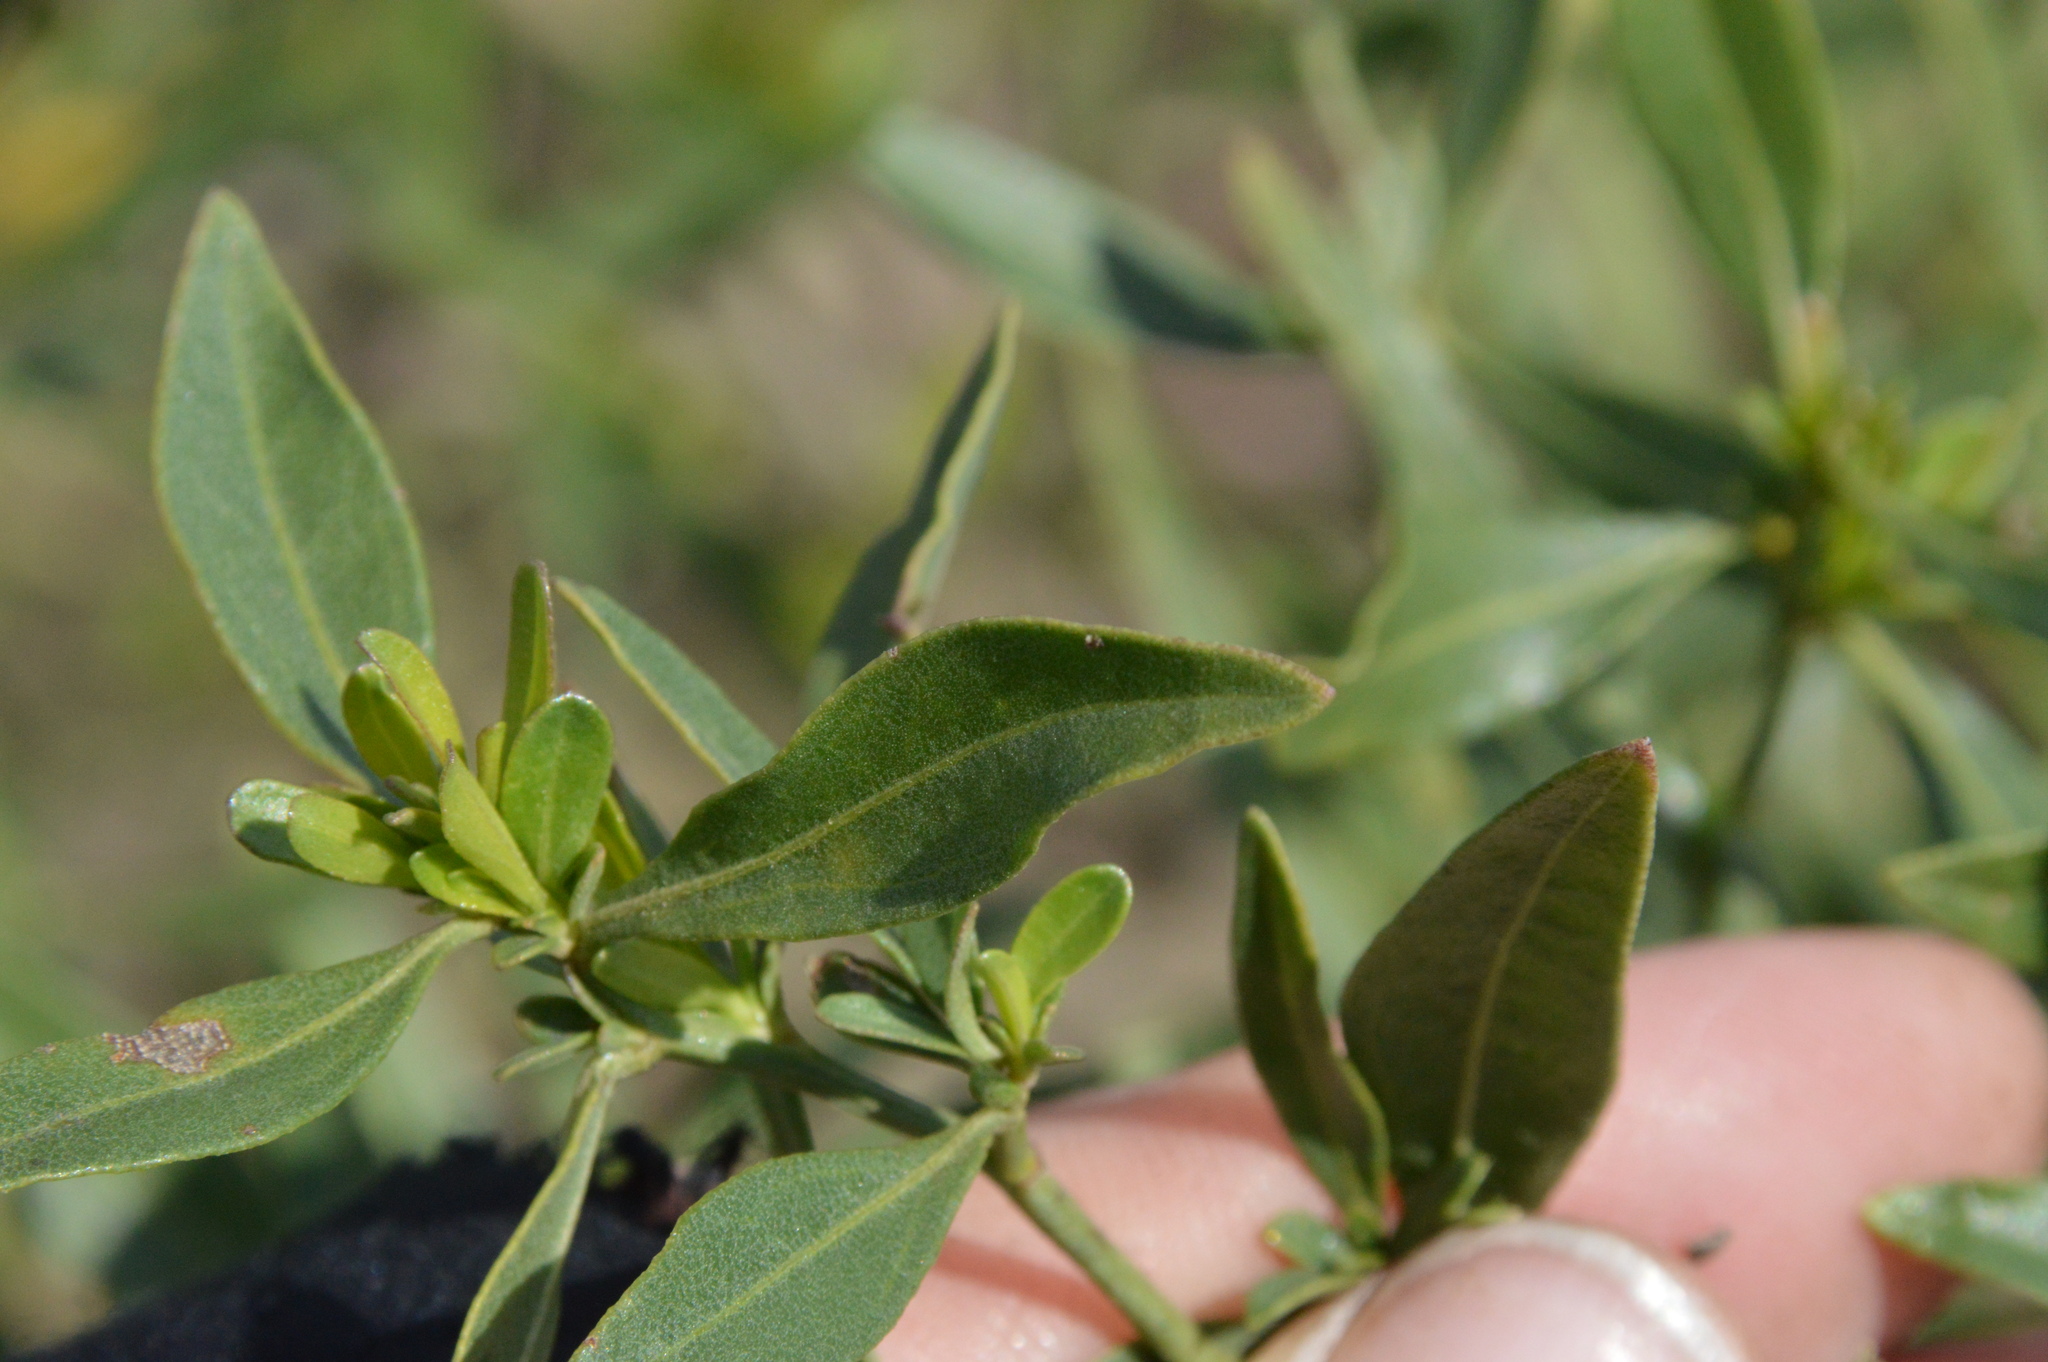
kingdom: Plantae
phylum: Tracheophyta
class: Magnoliopsida
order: Asterales
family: Asteraceae
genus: Baccharis
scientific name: Baccharis halimifolia
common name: Eastern baccharis
